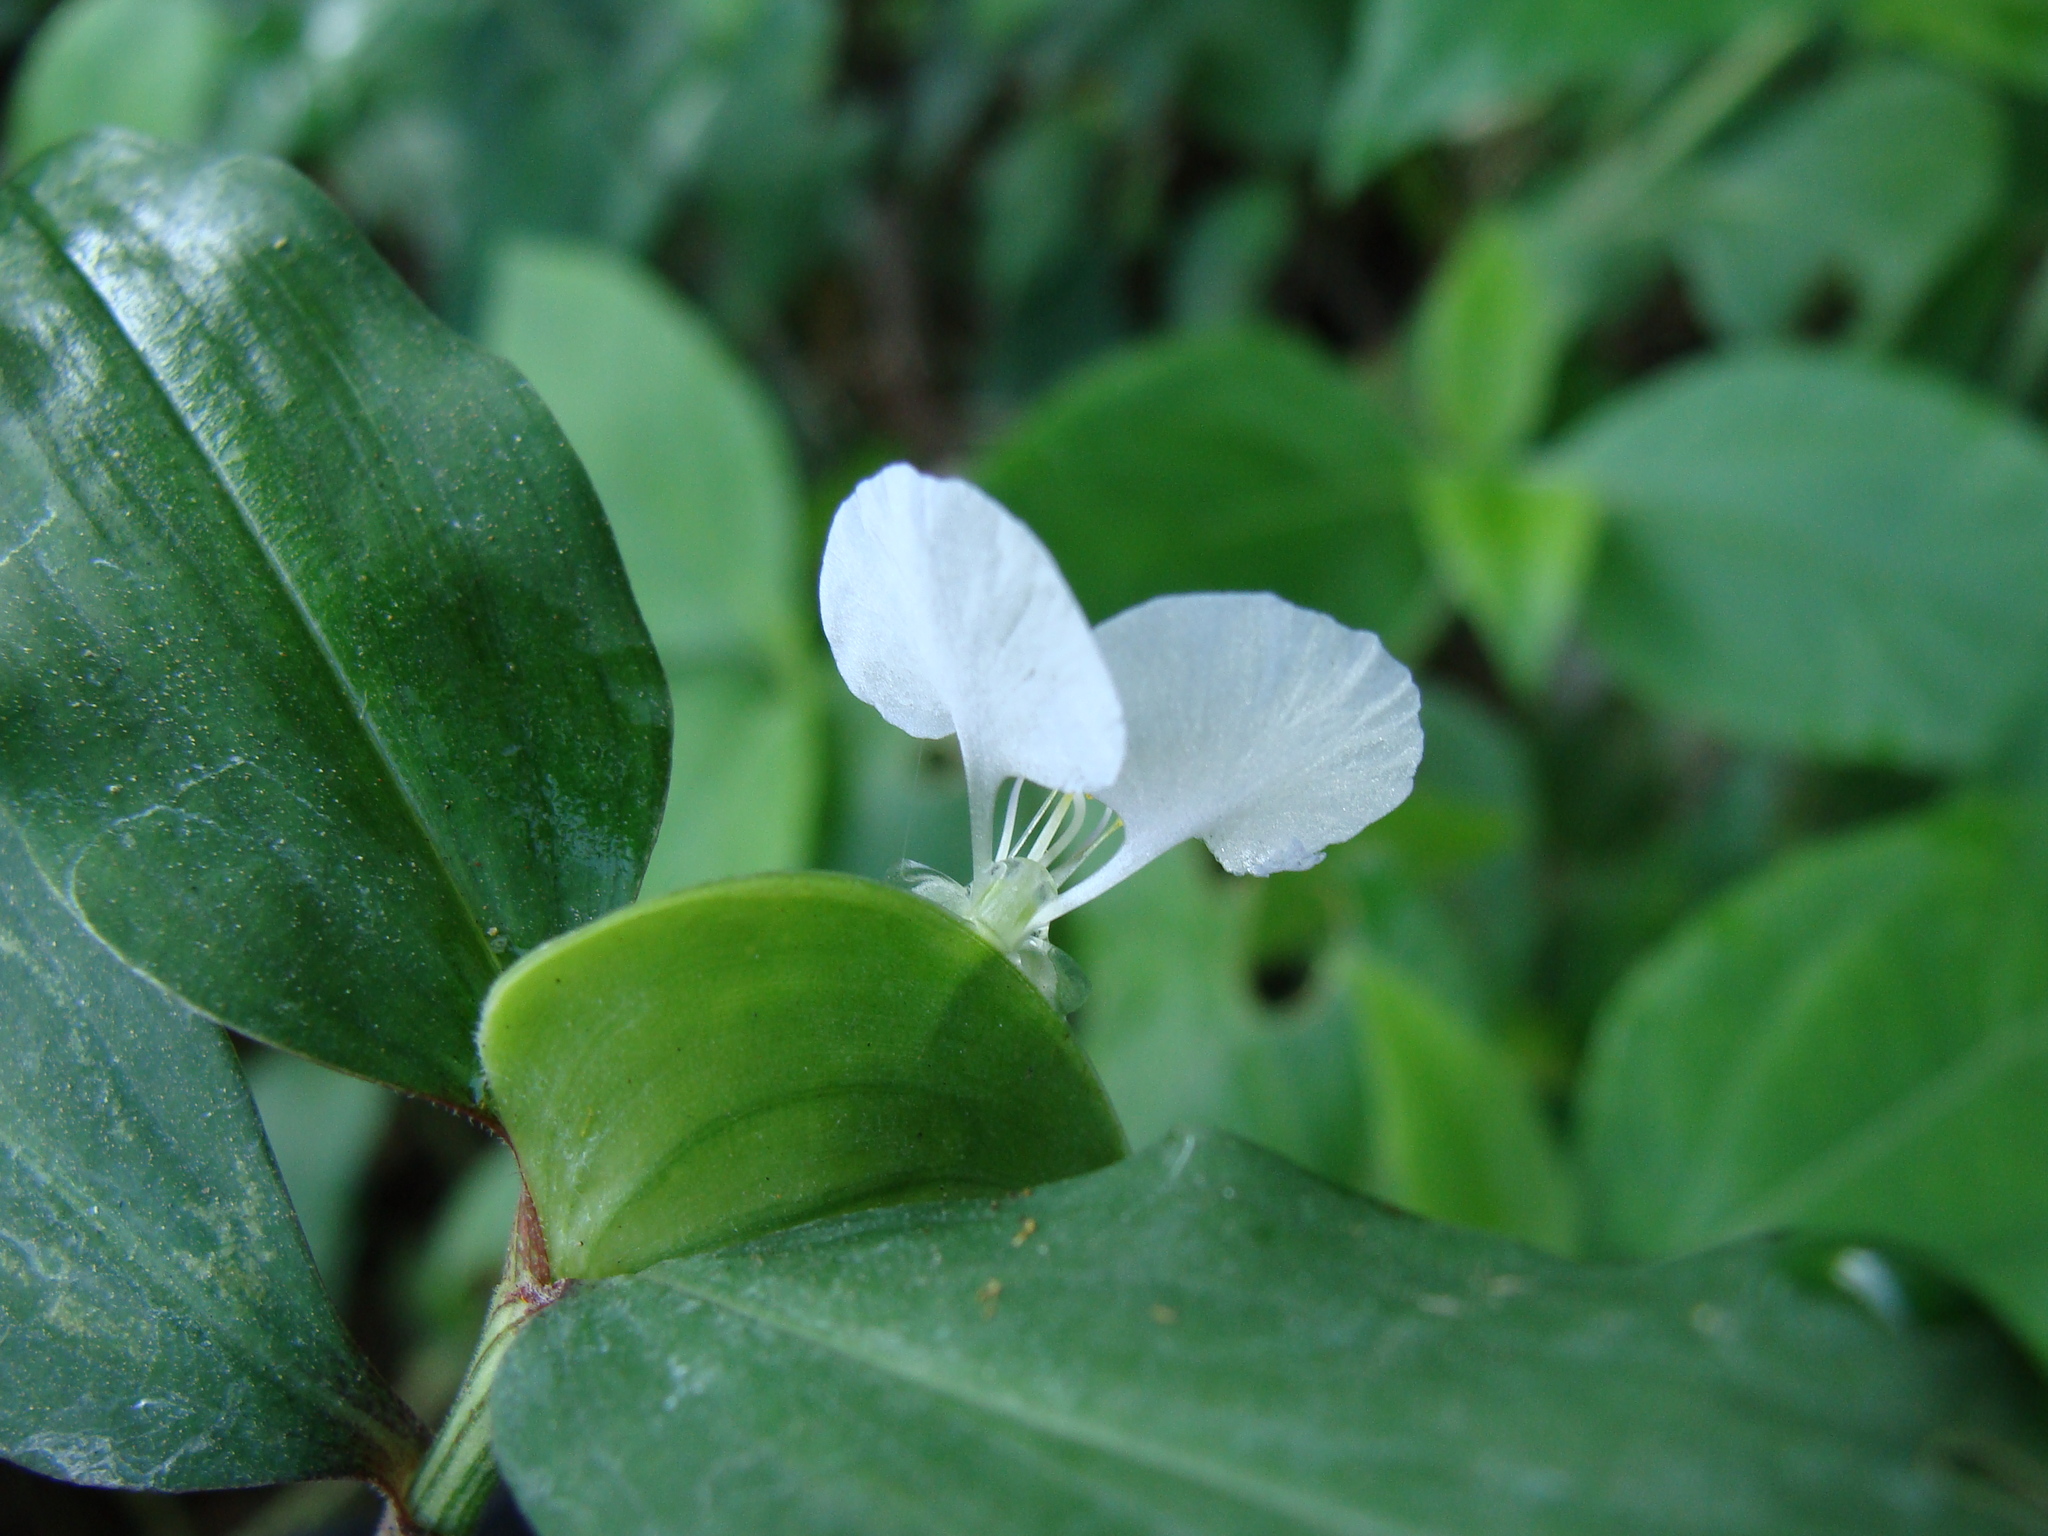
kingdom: Plantae
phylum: Tracheophyta
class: Liliopsida
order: Commelinales
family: Commelinaceae
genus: Commelina
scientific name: Commelina erecta
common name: Blousel blommetjie
